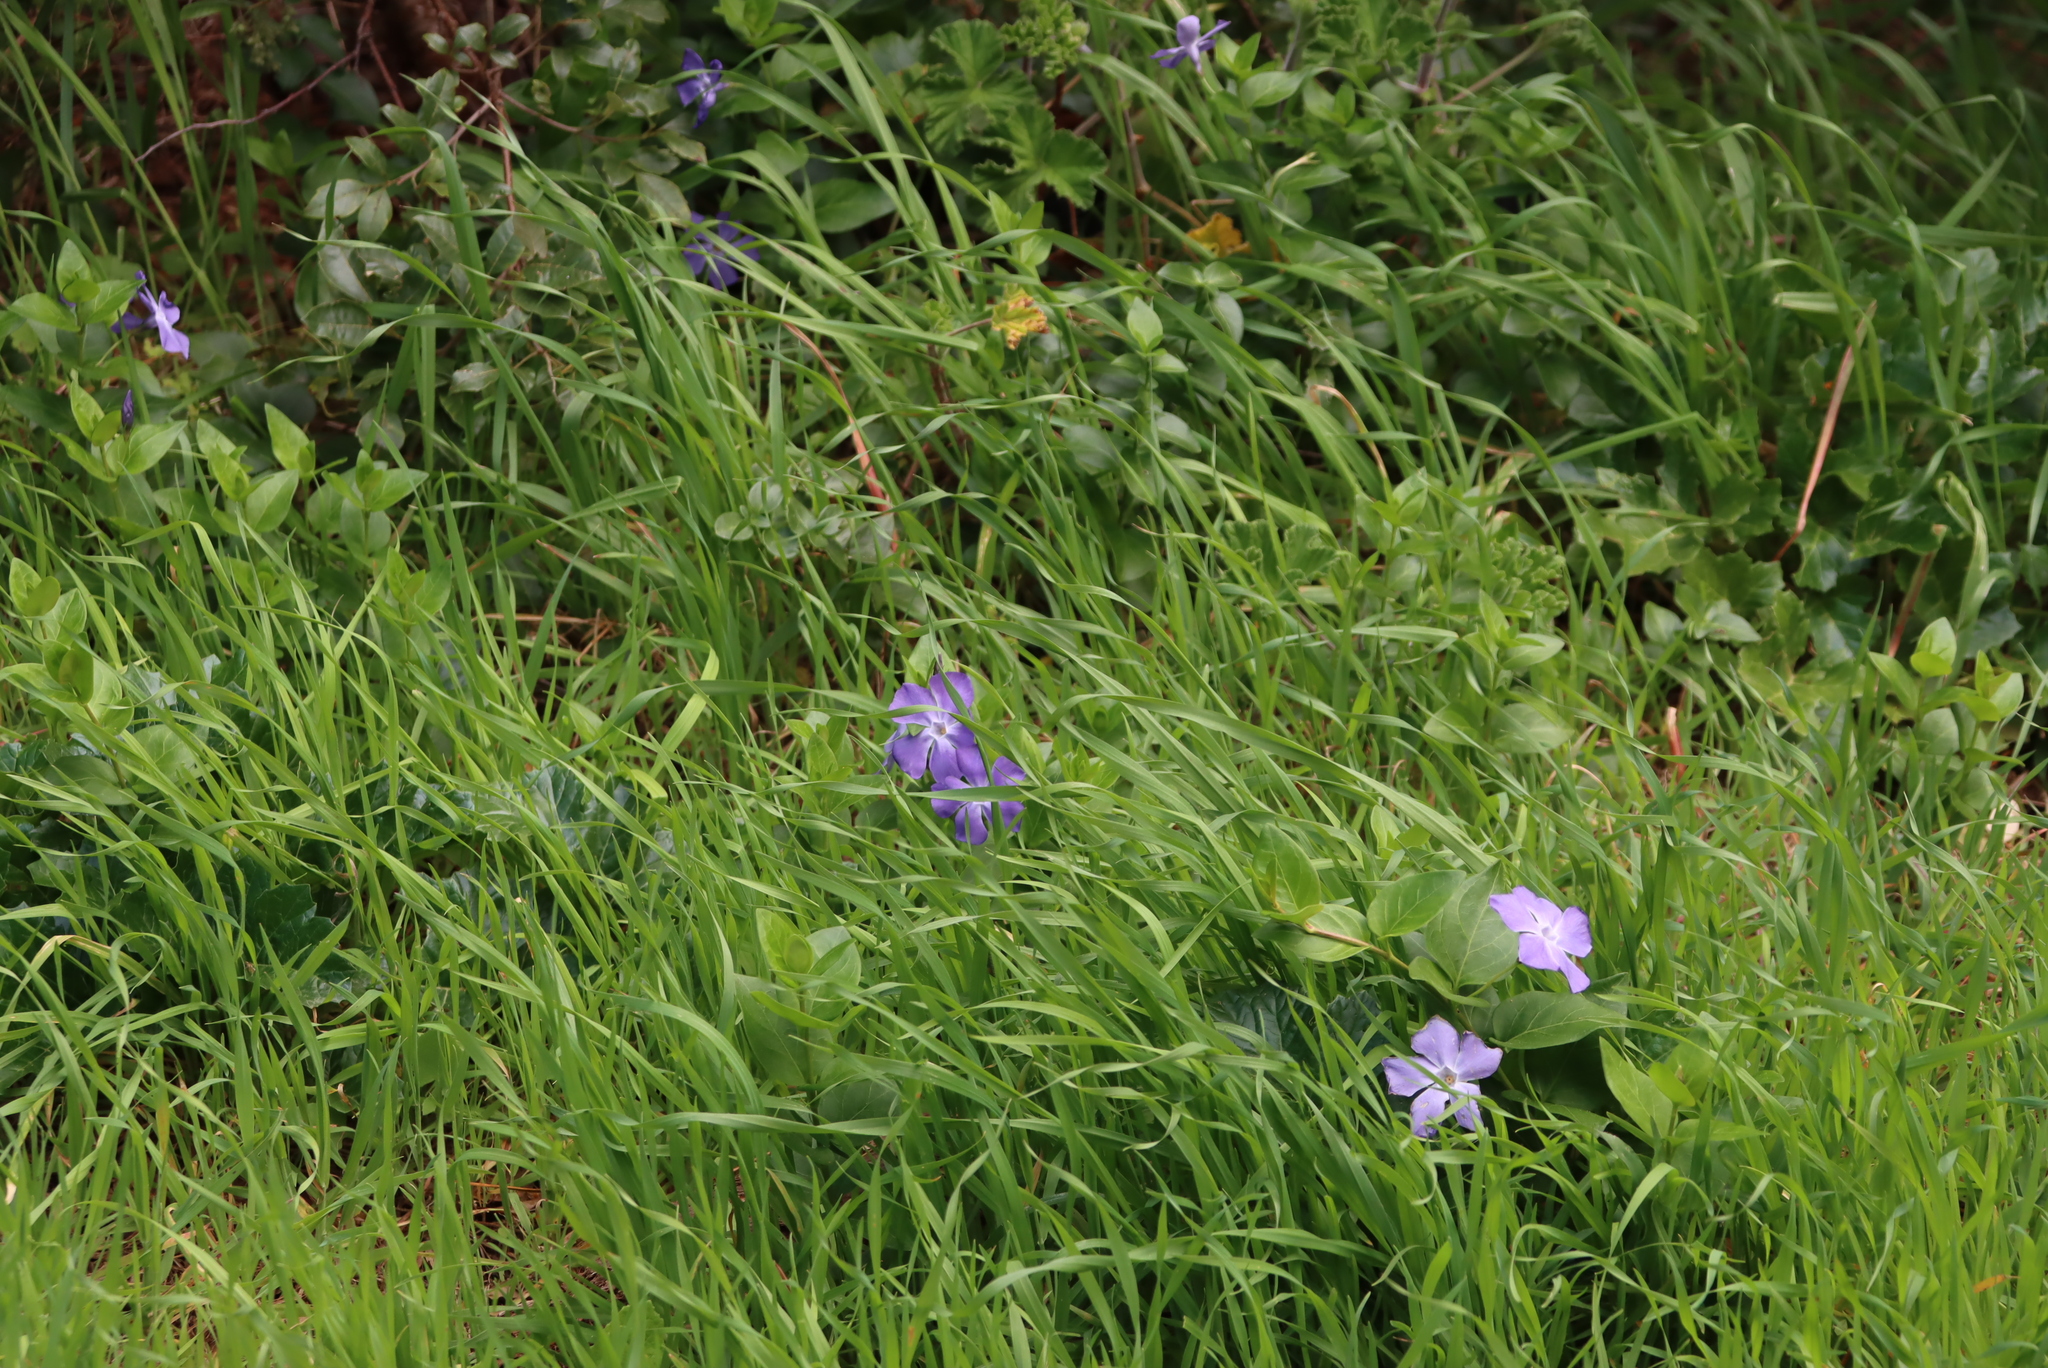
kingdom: Plantae
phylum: Tracheophyta
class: Magnoliopsida
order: Gentianales
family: Apocynaceae
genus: Vinca
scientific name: Vinca major
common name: Greater periwinkle
